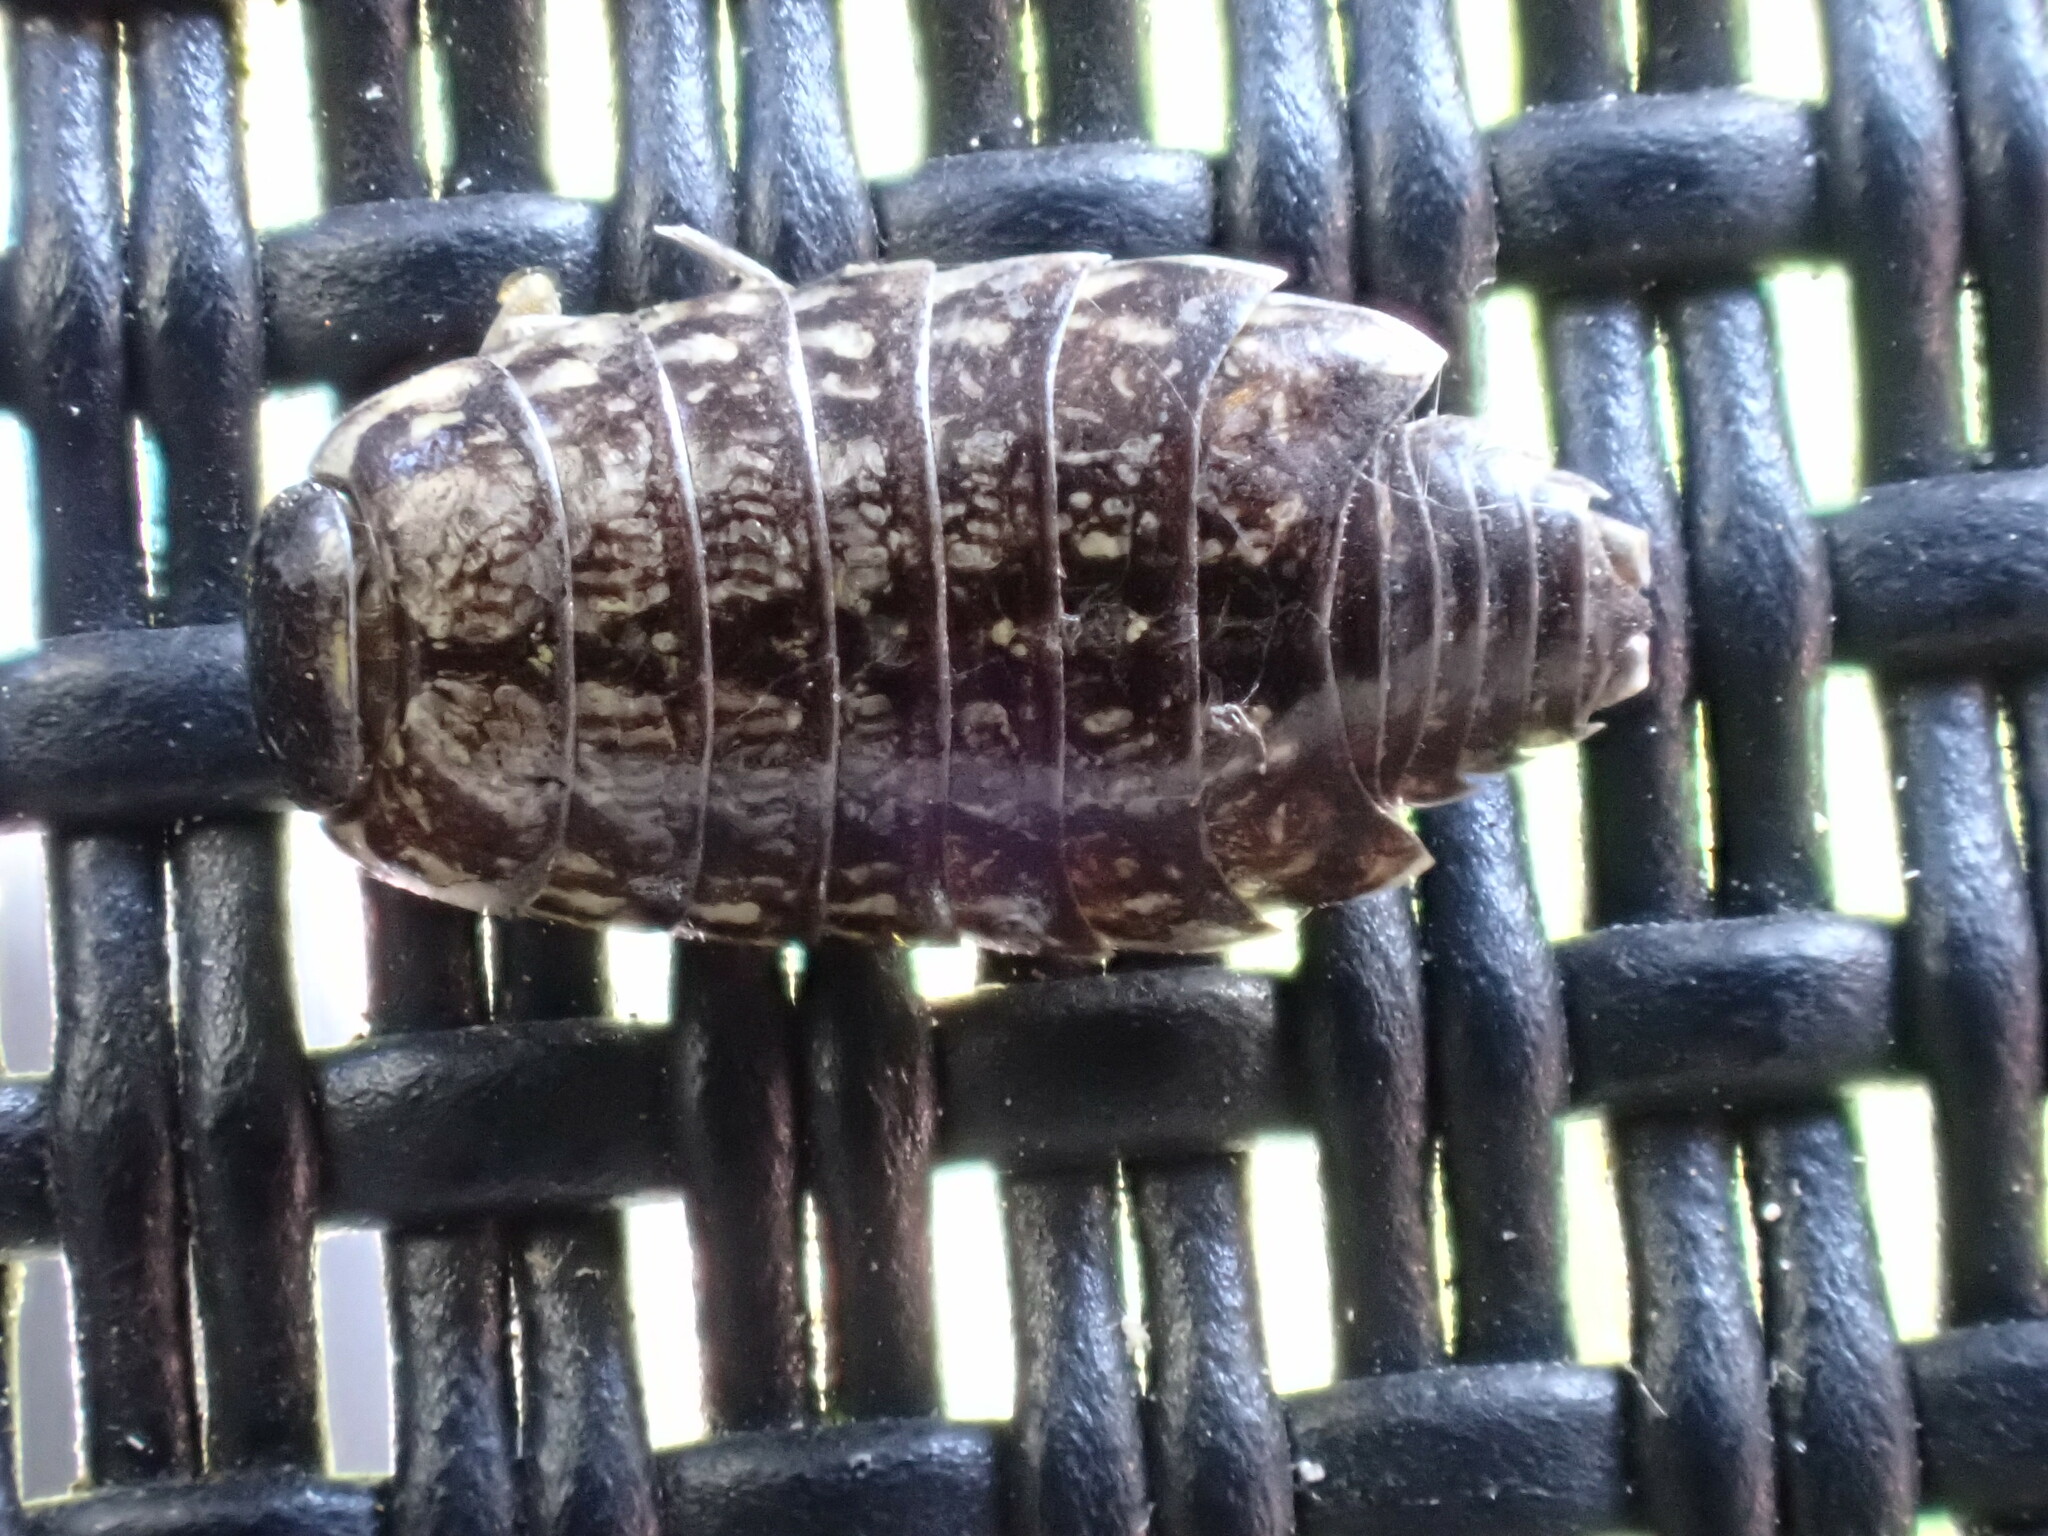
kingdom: Animalia
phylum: Arthropoda
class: Malacostraca
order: Isopoda
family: Philosciidae
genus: Philoscia
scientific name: Philoscia muscorum
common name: Common striped woodlouse
